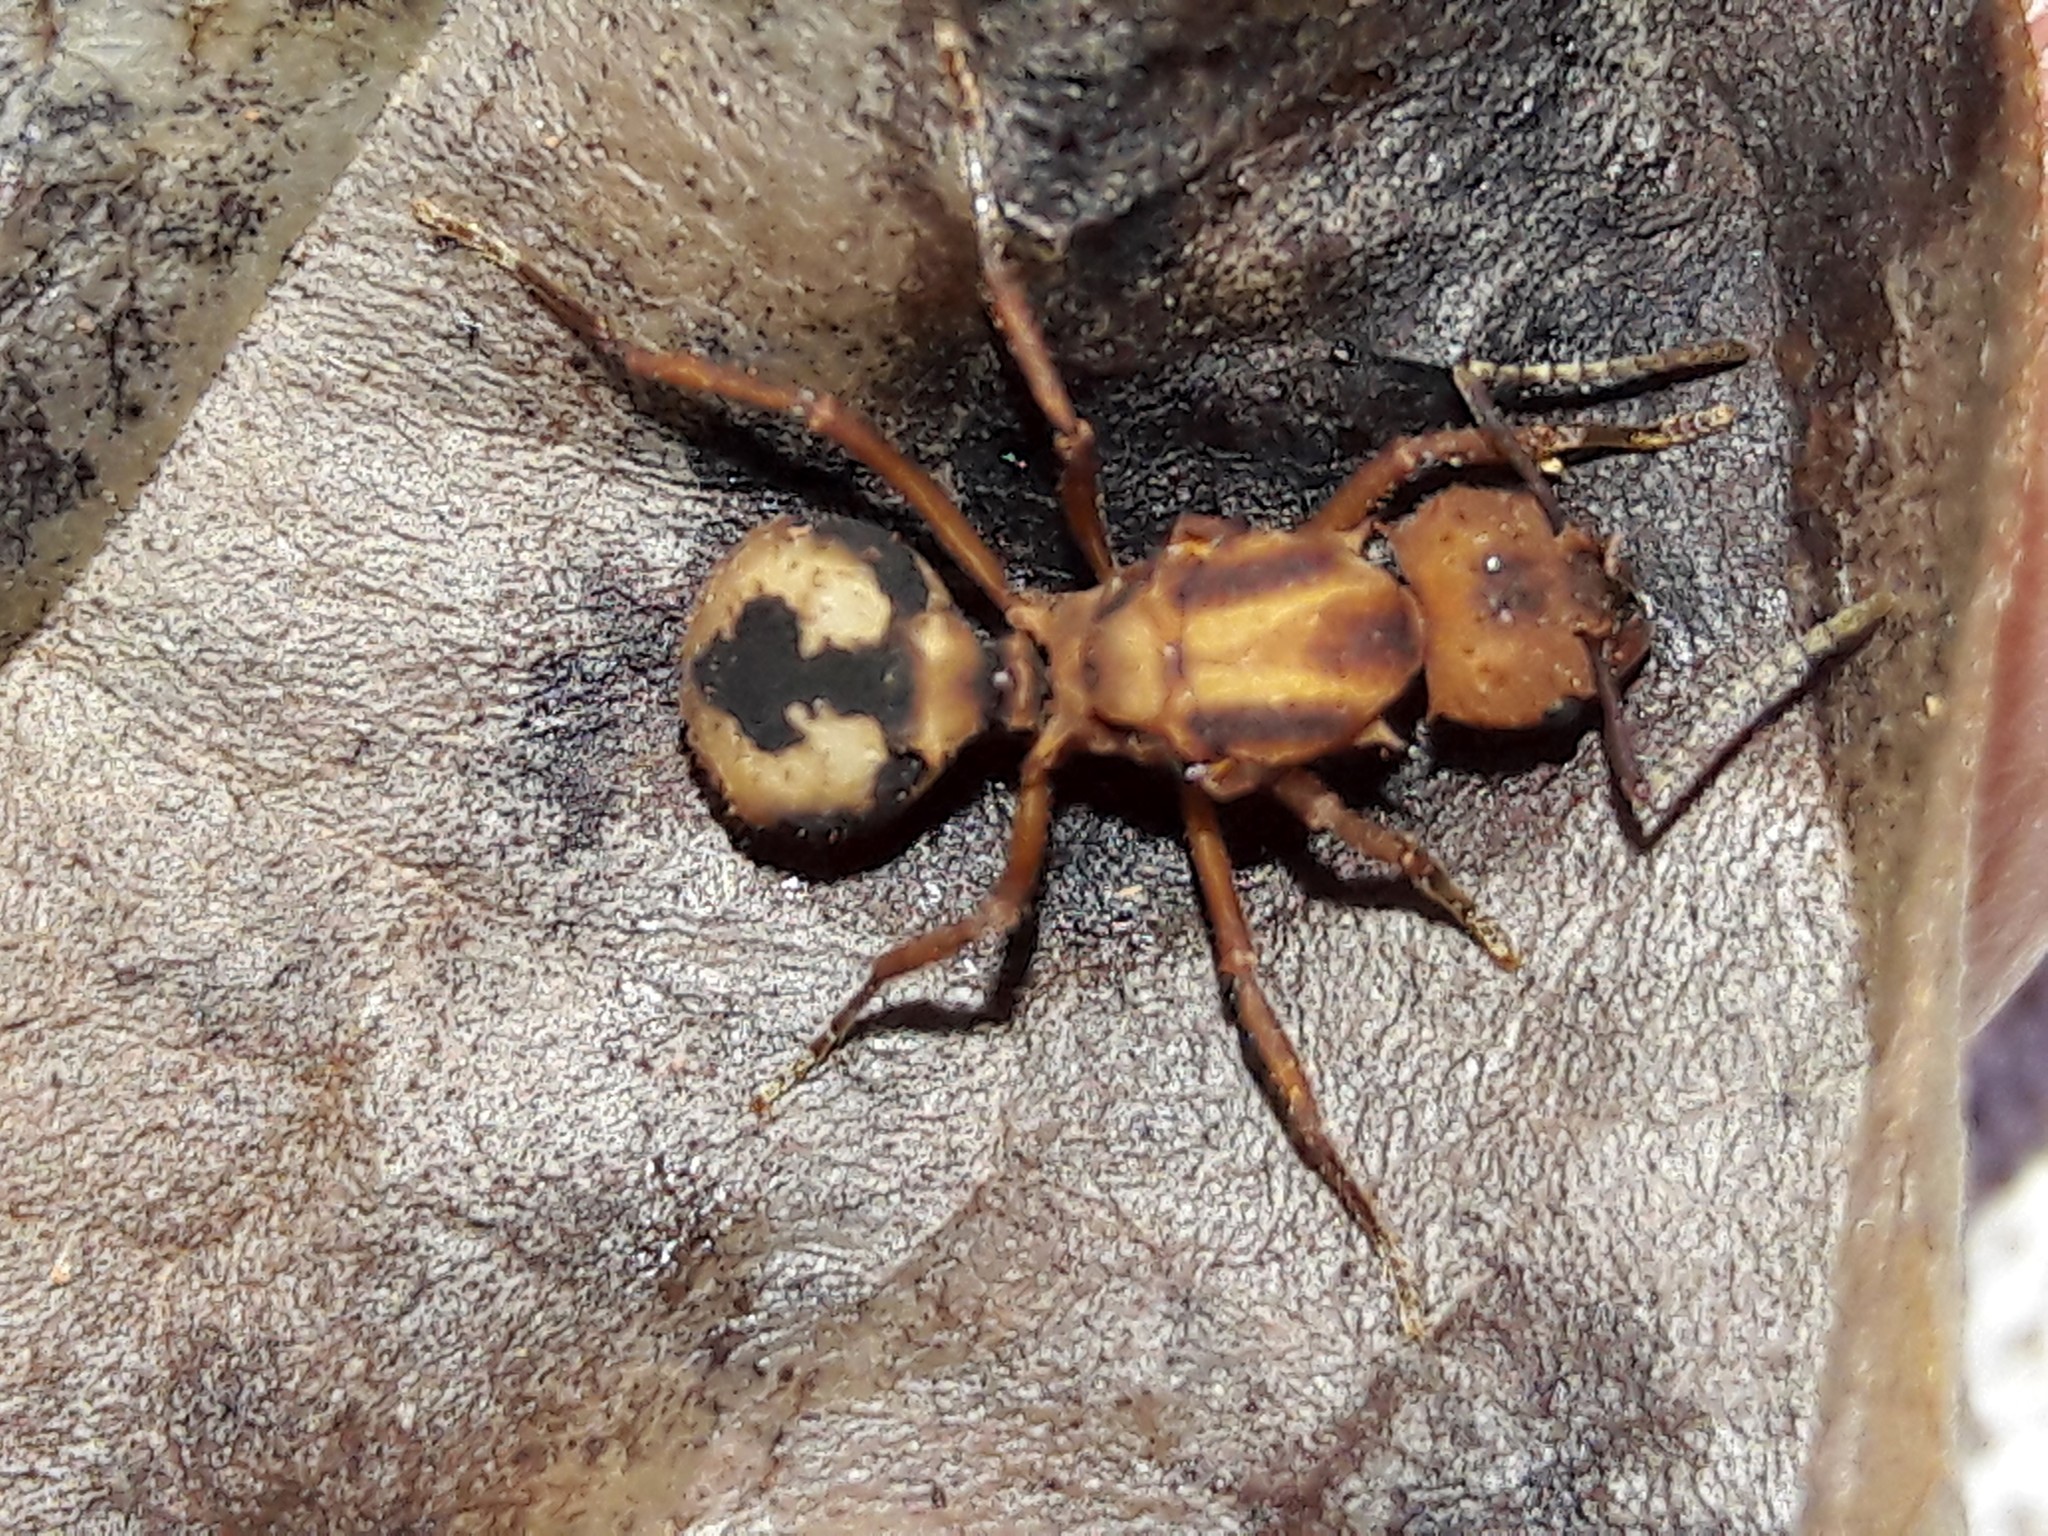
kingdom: Animalia
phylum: Arthropoda
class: Insecta
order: Hymenoptera
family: Formicidae
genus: Acromyrmex
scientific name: Acromyrmex coronatus
